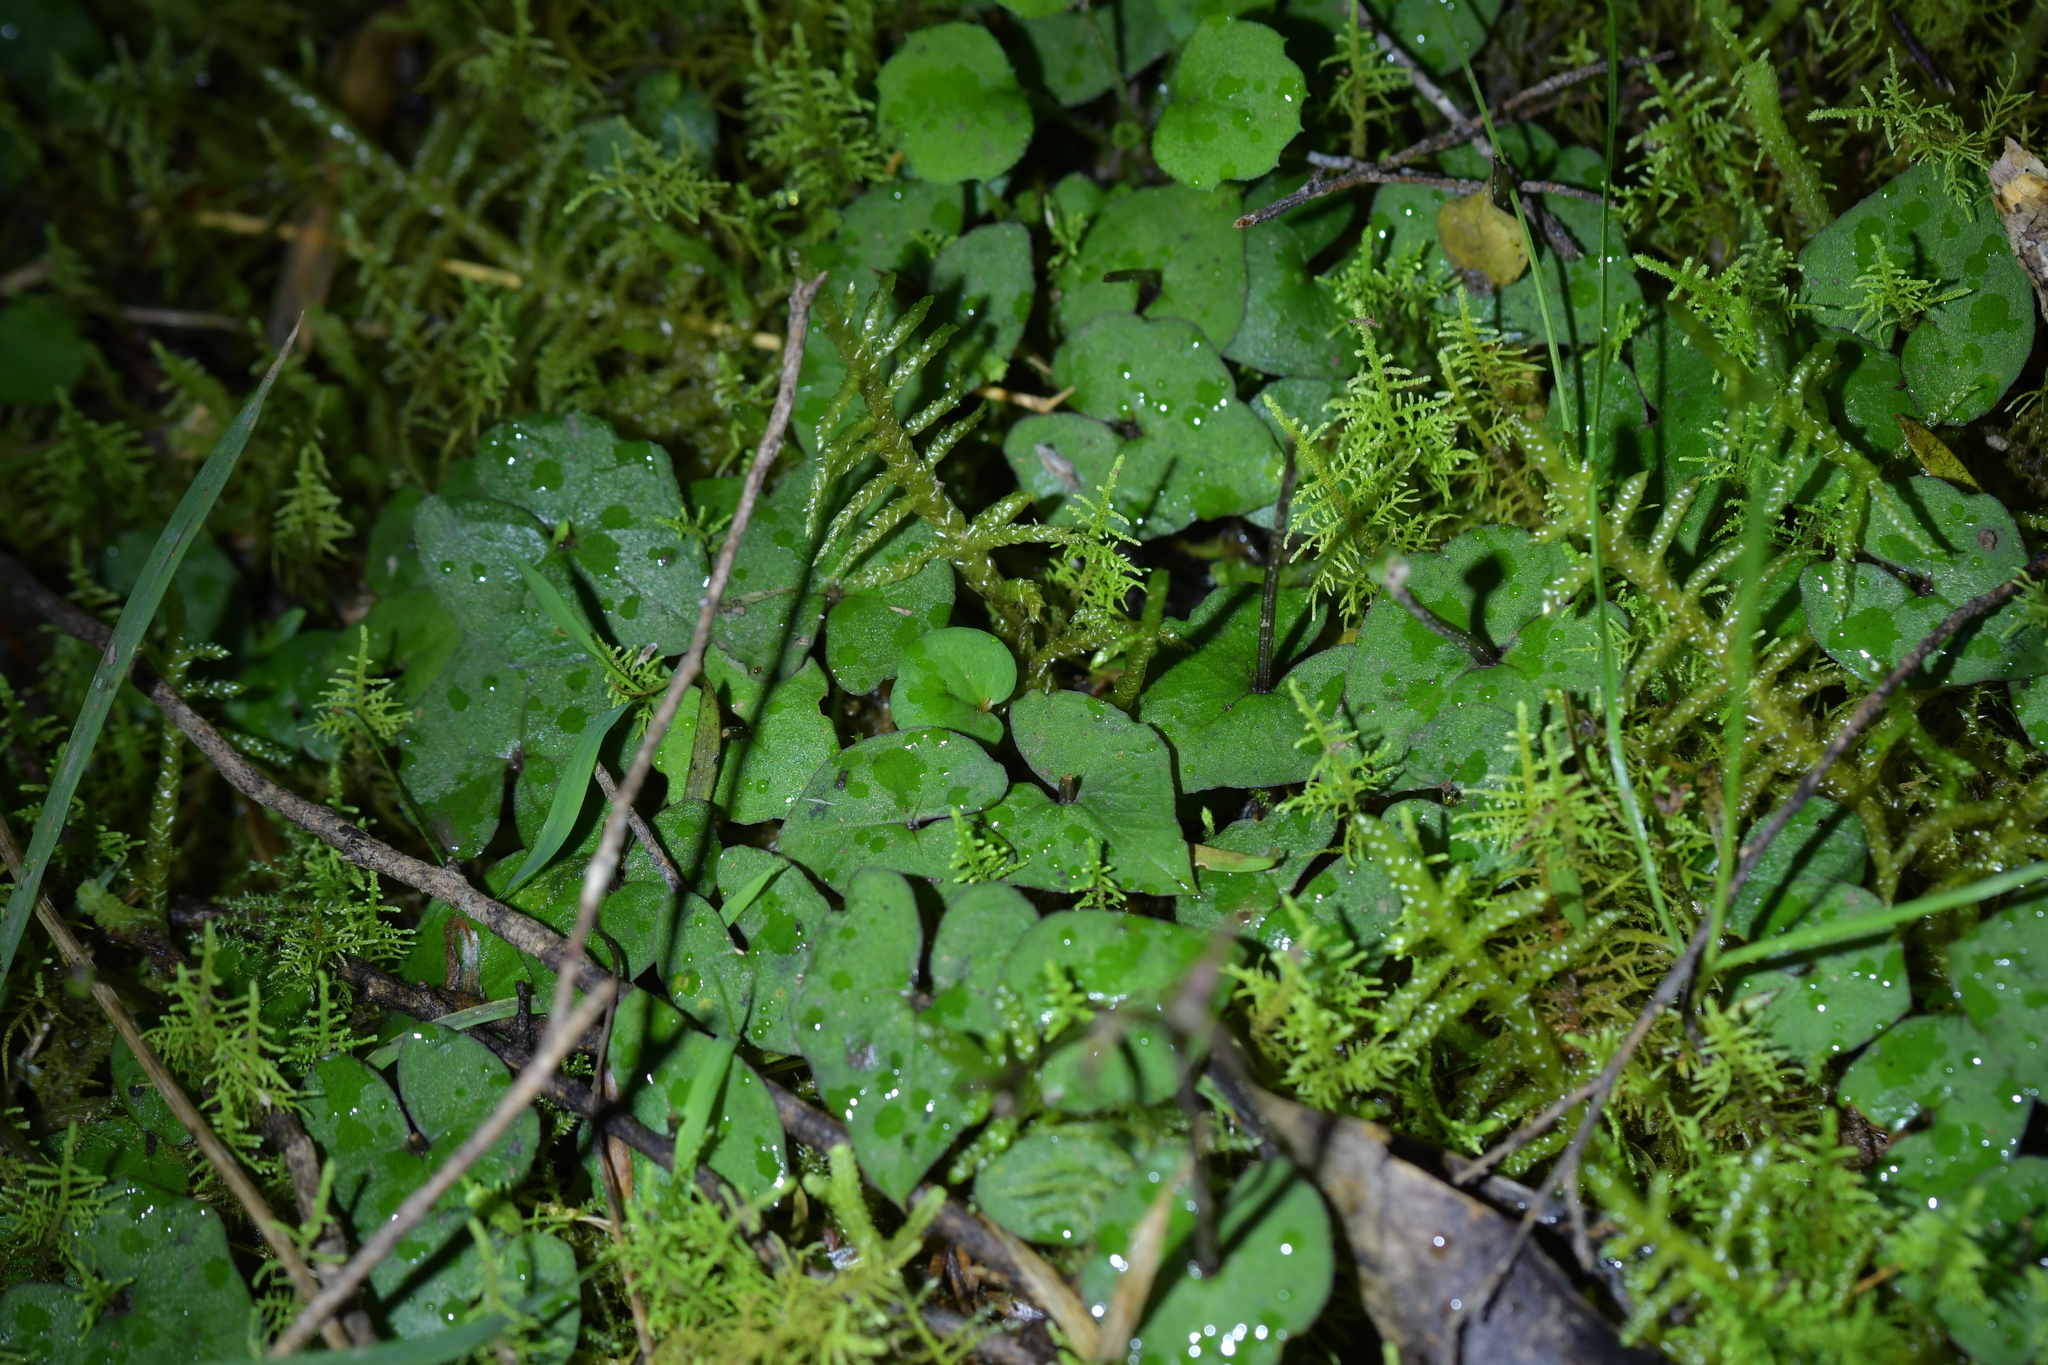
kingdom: Plantae
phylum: Tracheophyta
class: Liliopsida
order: Asparagales
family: Orchidaceae
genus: Acianthus
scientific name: Acianthus sinclairii
